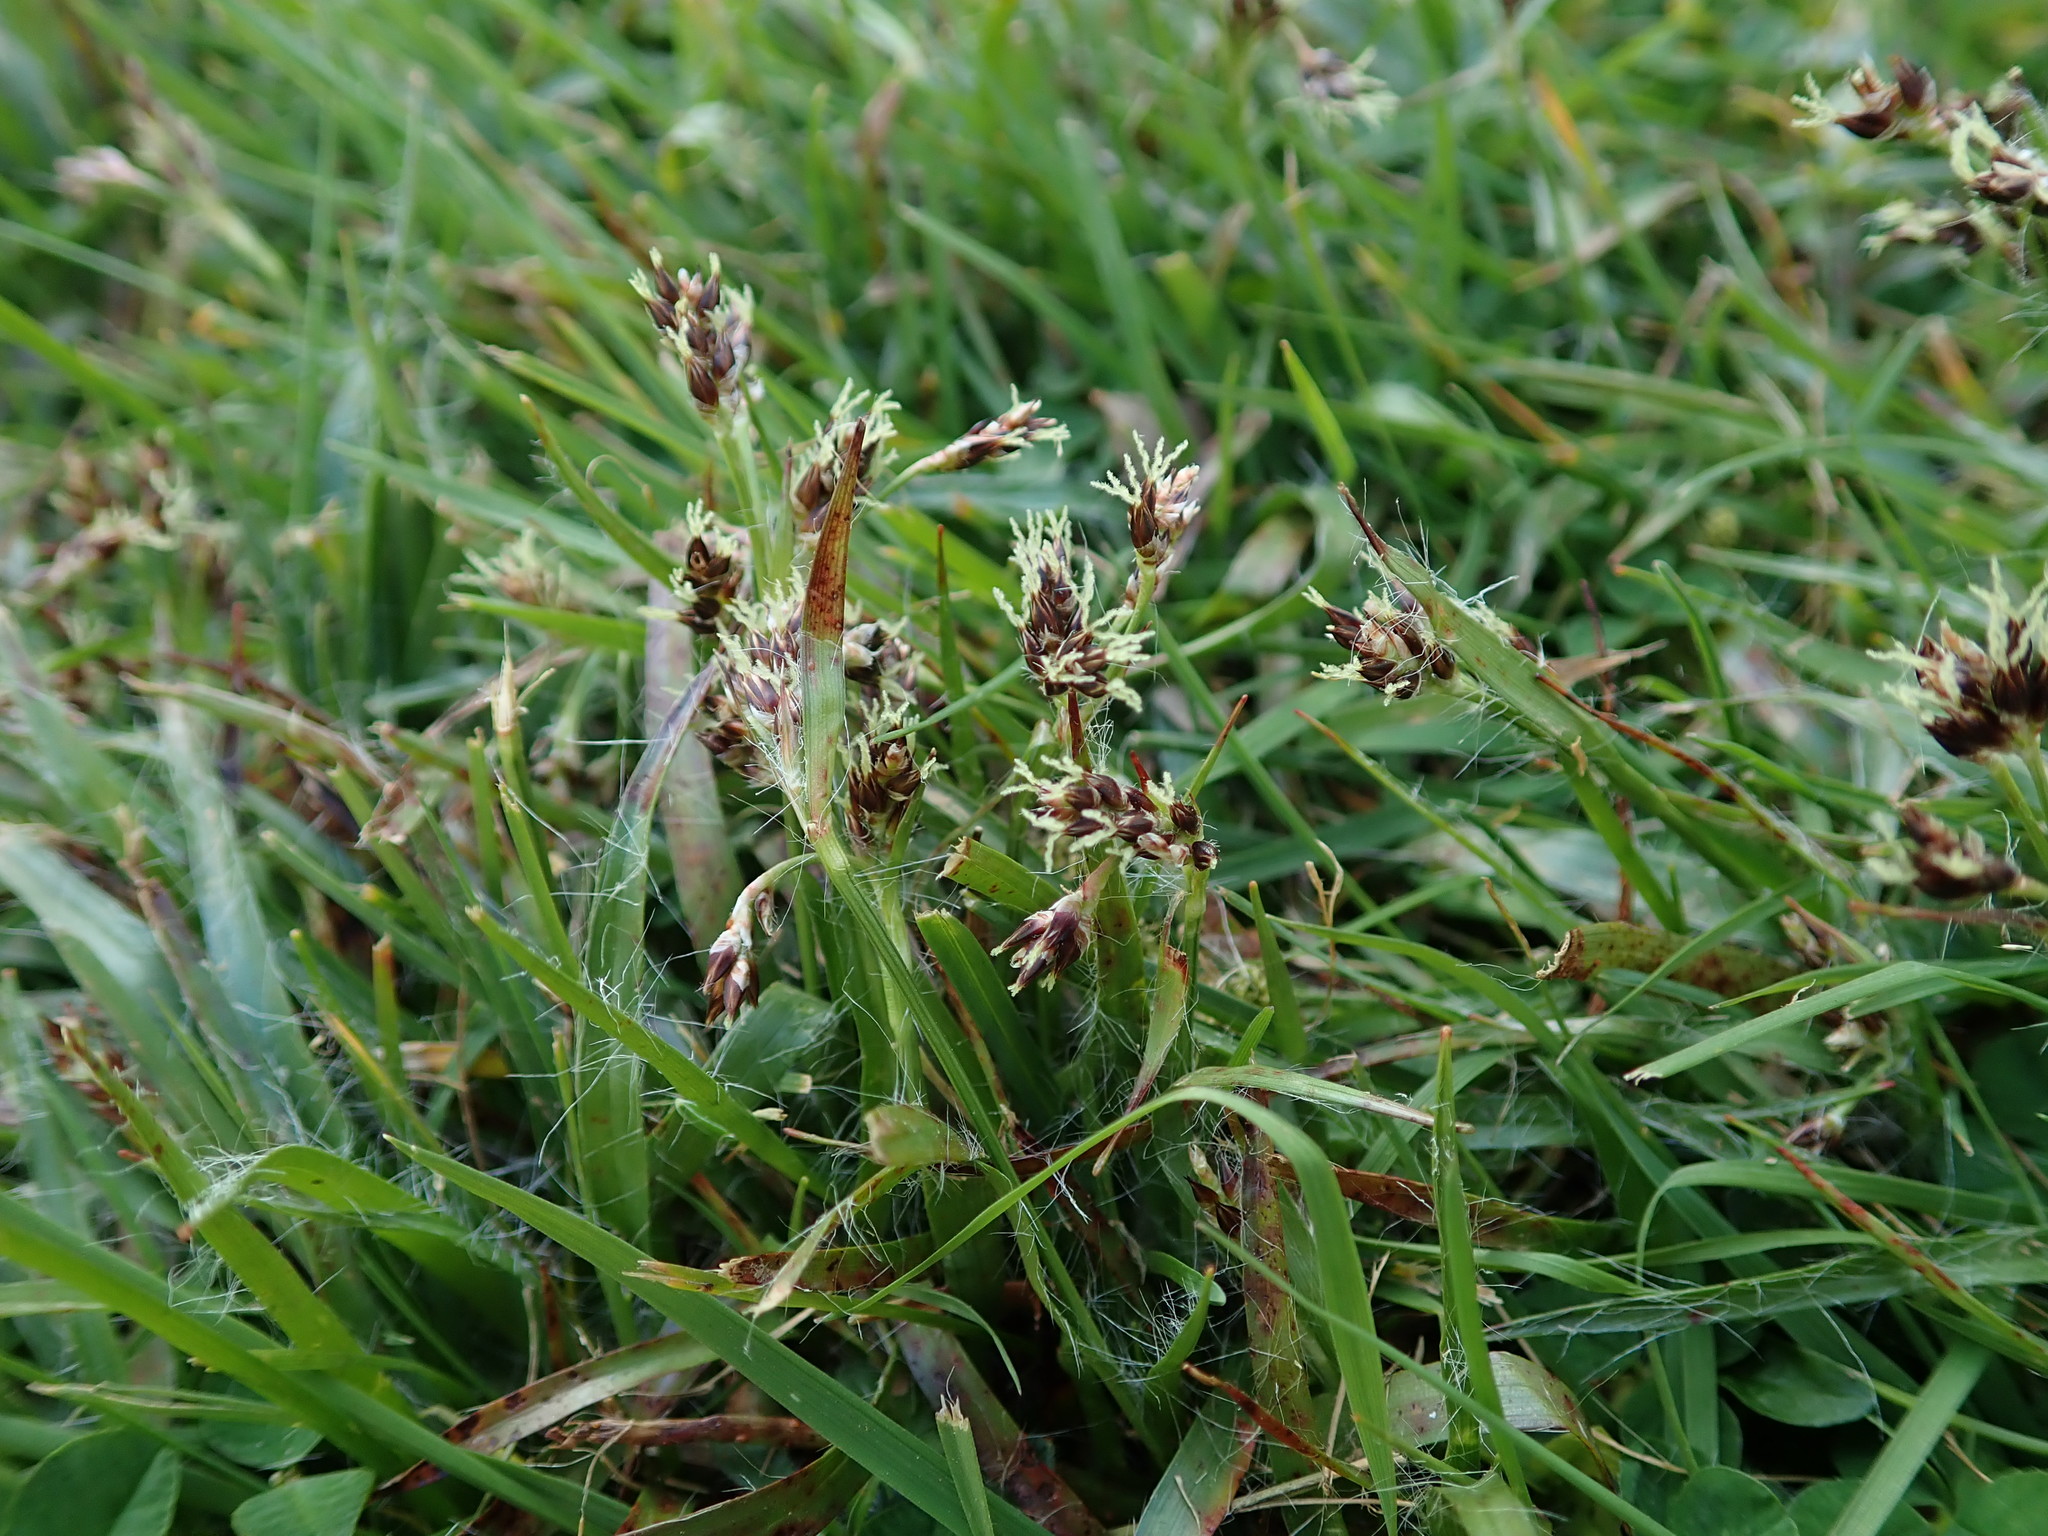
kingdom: Plantae
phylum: Tracheophyta
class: Liliopsida
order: Poales
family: Juncaceae
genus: Luzula
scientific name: Luzula campestris
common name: Field wood-rush
